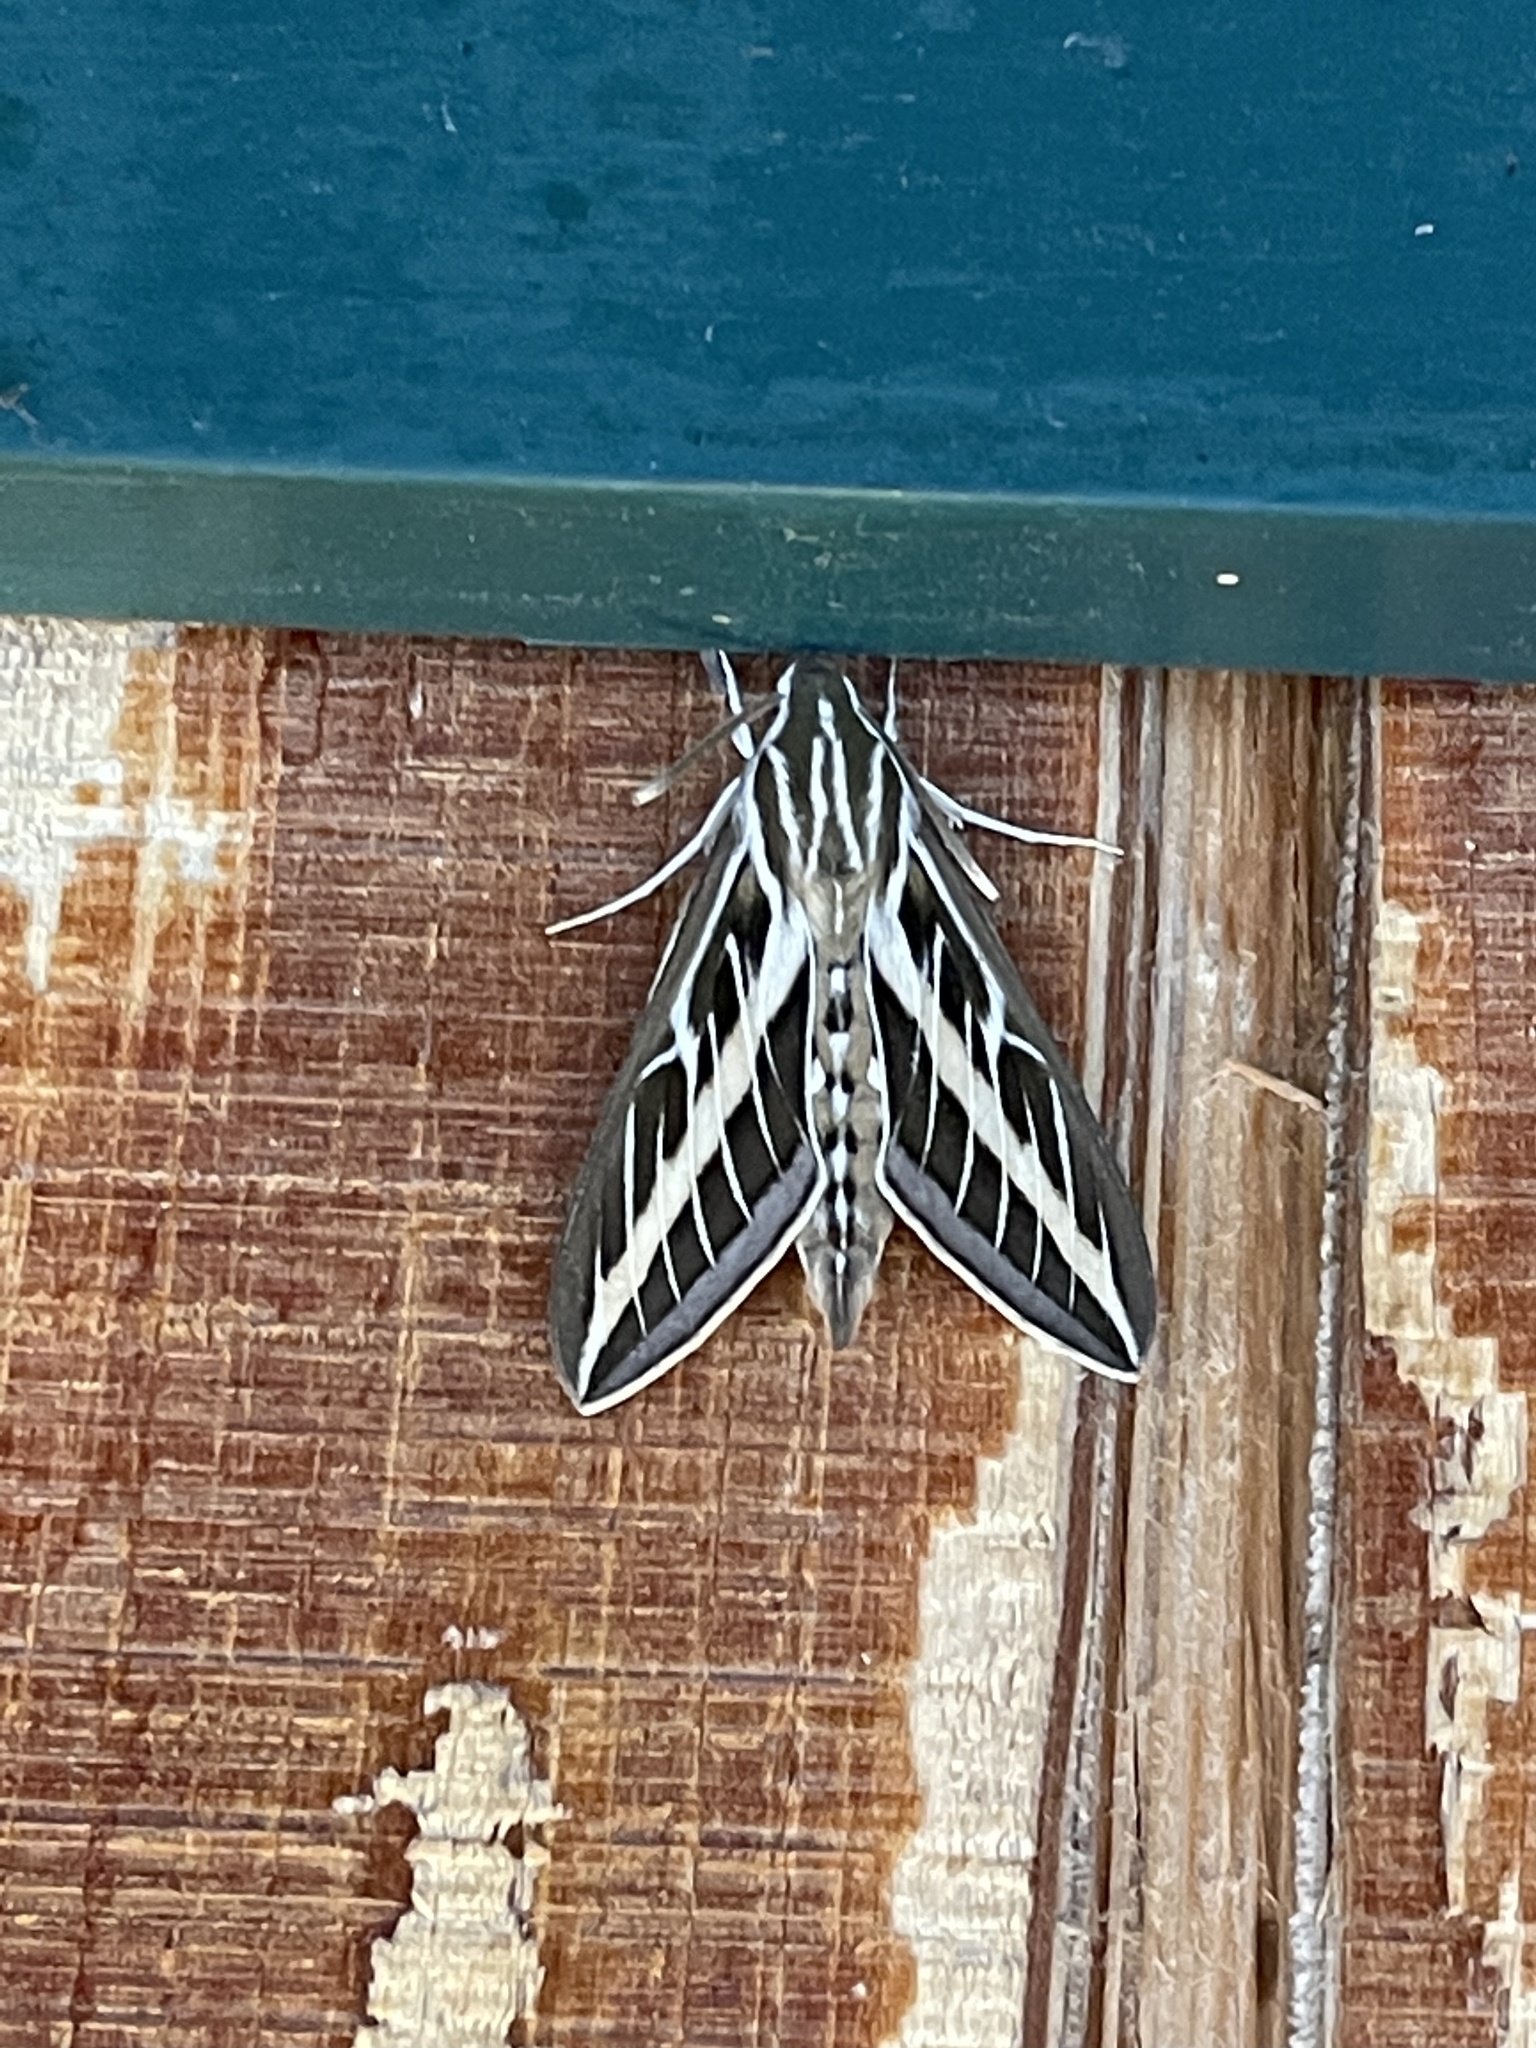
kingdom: Animalia
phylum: Arthropoda
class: Insecta
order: Lepidoptera
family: Sphingidae
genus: Hyles
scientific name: Hyles lineata
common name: White-lined sphinx
